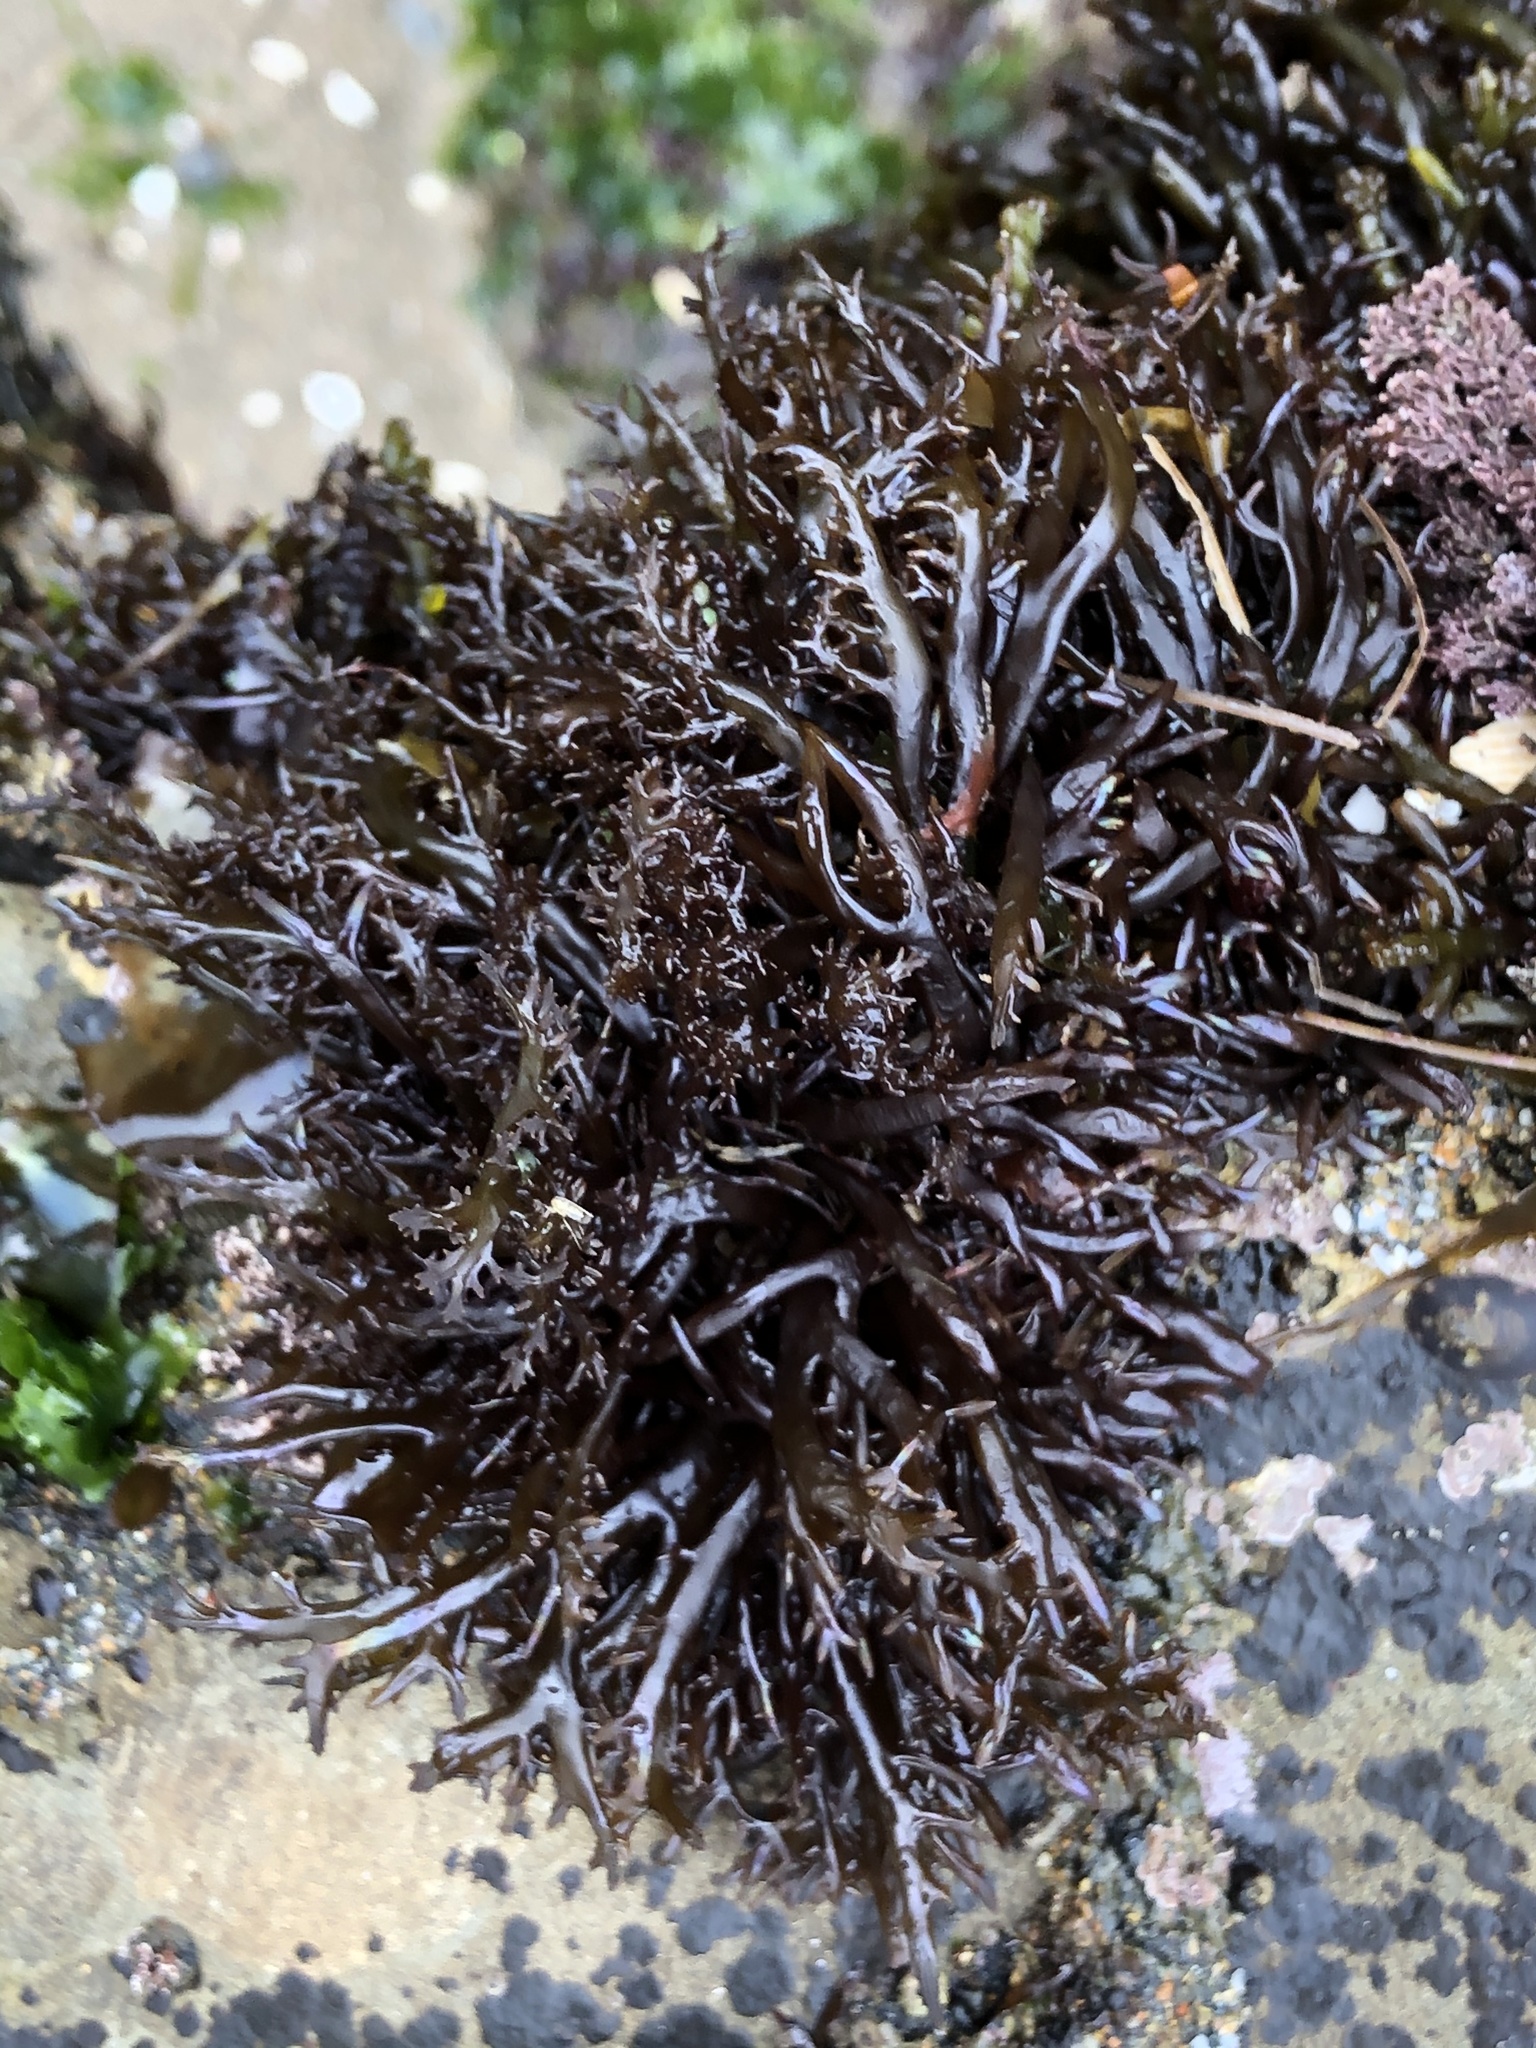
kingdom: Plantae
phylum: Rhodophyta
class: Florideophyceae
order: Gigartinales
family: Gigartinaceae
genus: Chondracanthus
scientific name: Chondracanthus canaliculatus
